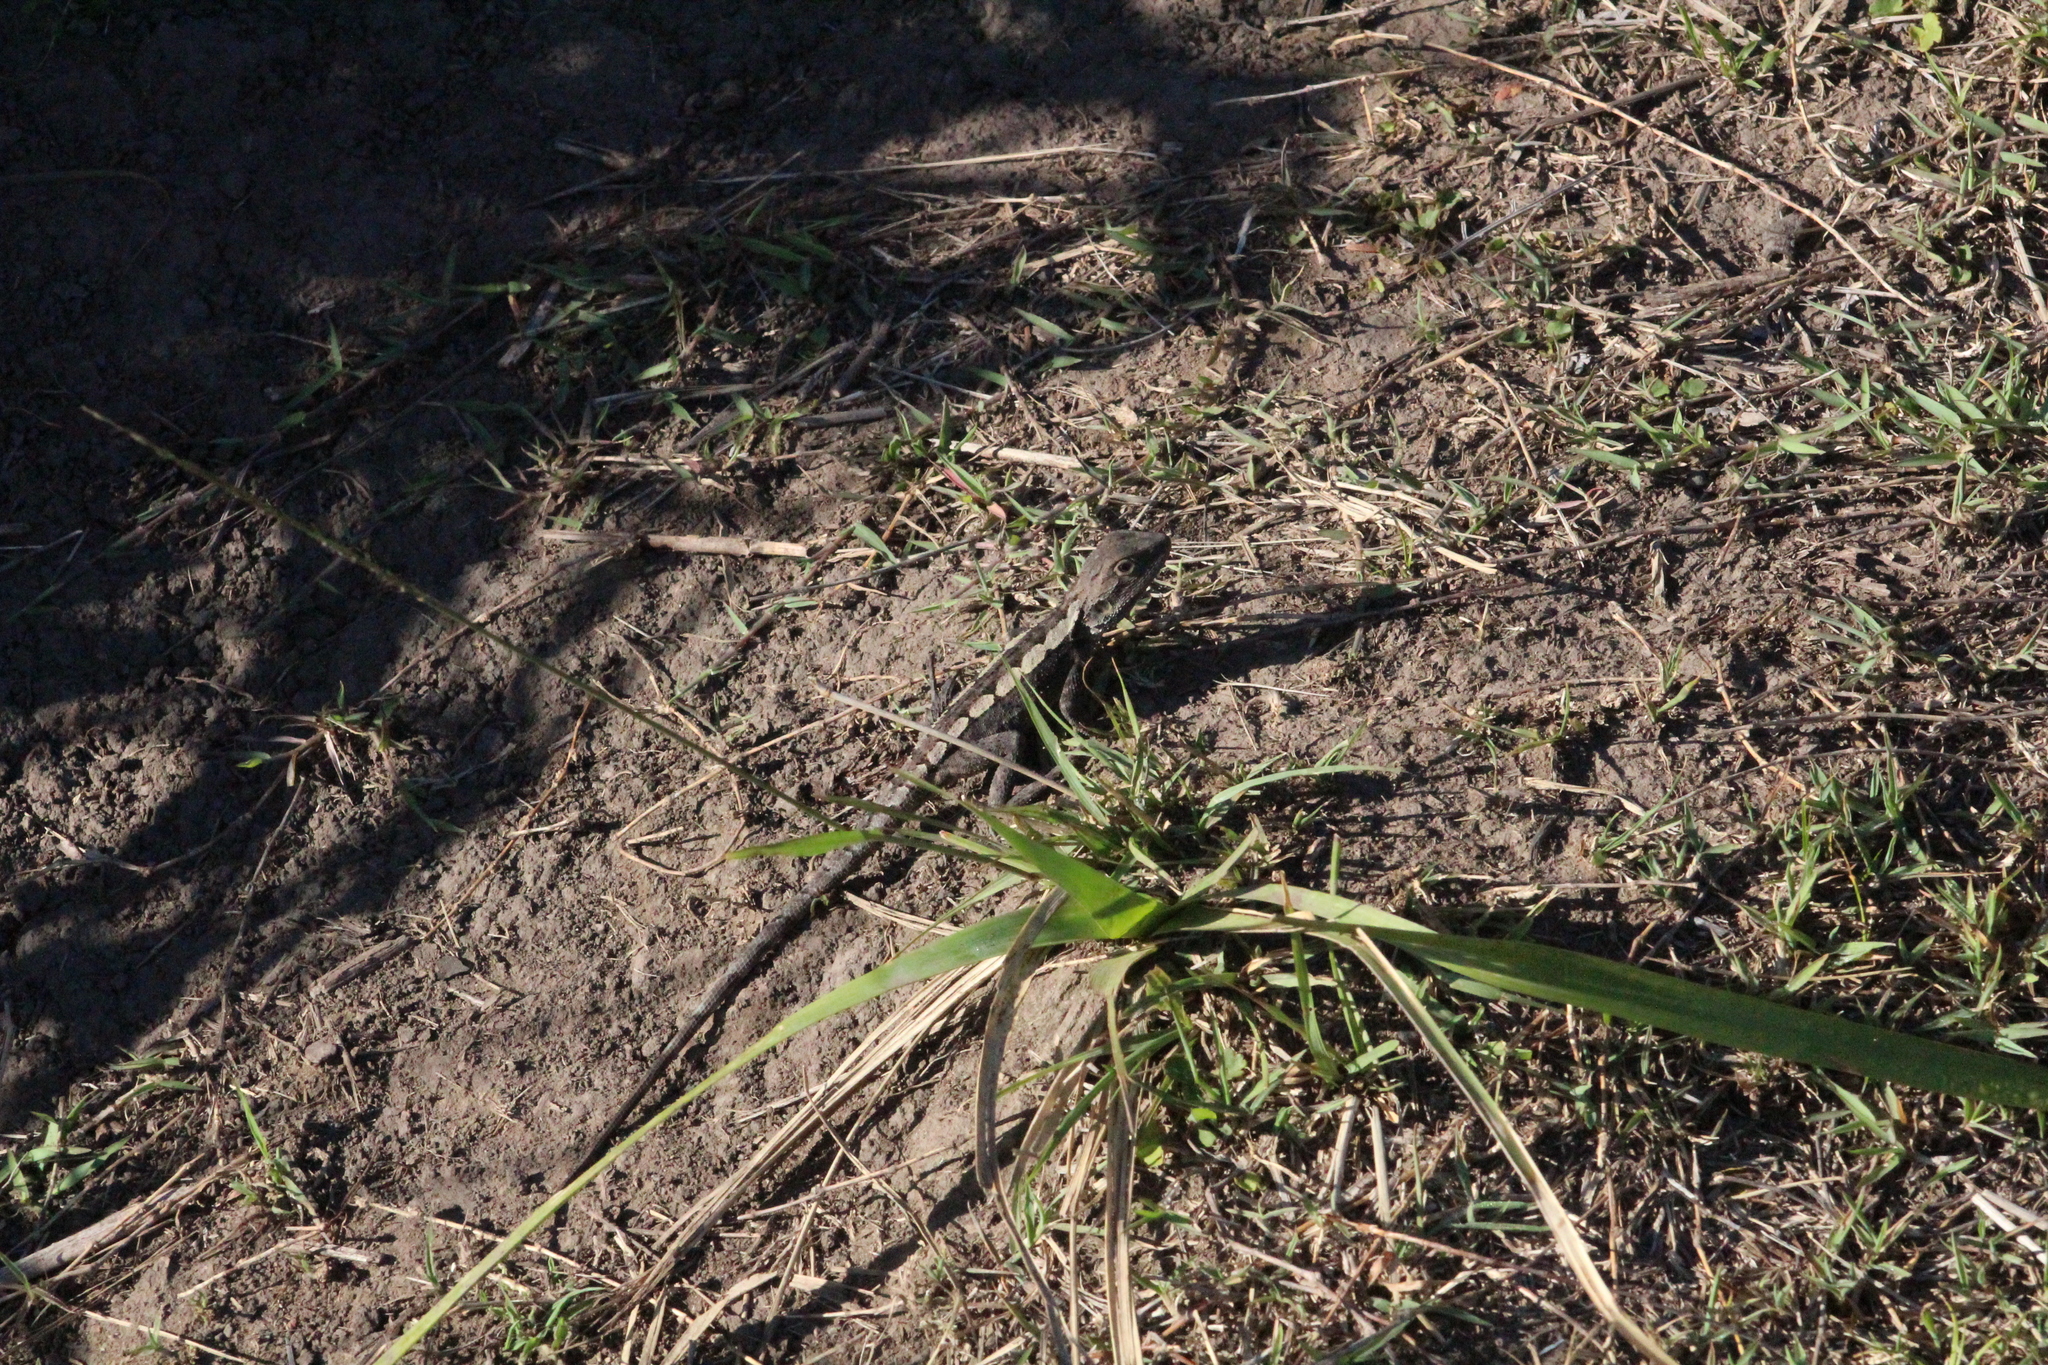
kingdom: Animalia
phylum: Chordata
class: Squamata
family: Agamidae
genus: Amphibolurus
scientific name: Amphibolurus muricatus
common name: Jacky lizard
